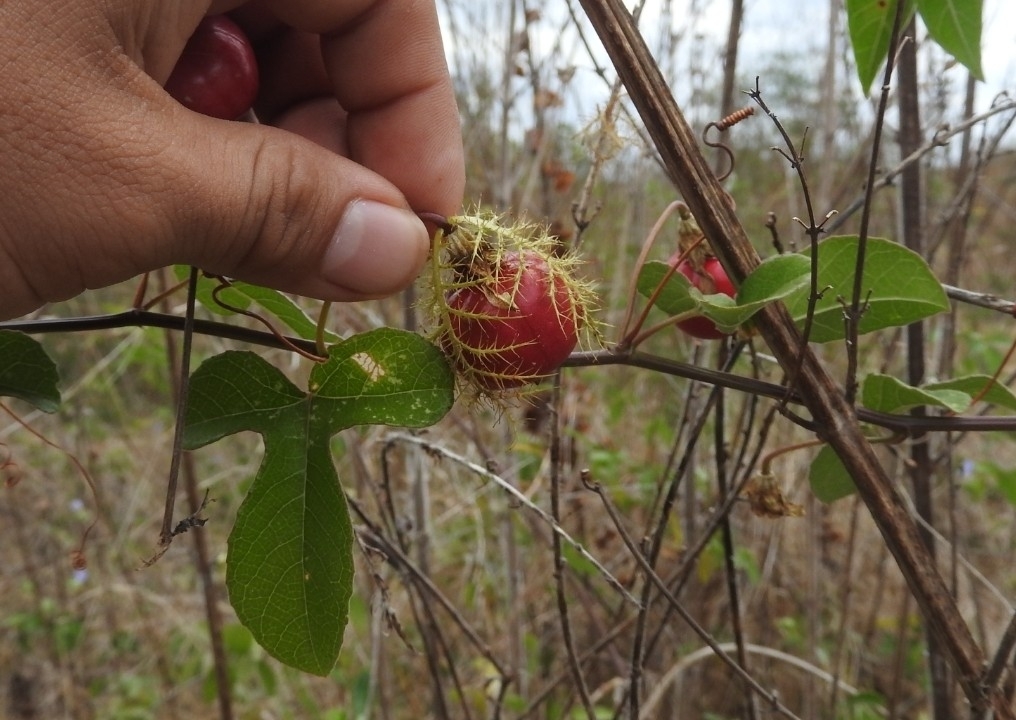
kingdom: Plantae
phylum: Tracheophyta
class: Magnoliopsida
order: Malpighiales
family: Passifloraceae
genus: Passiflora
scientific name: Passiflora ciliata
